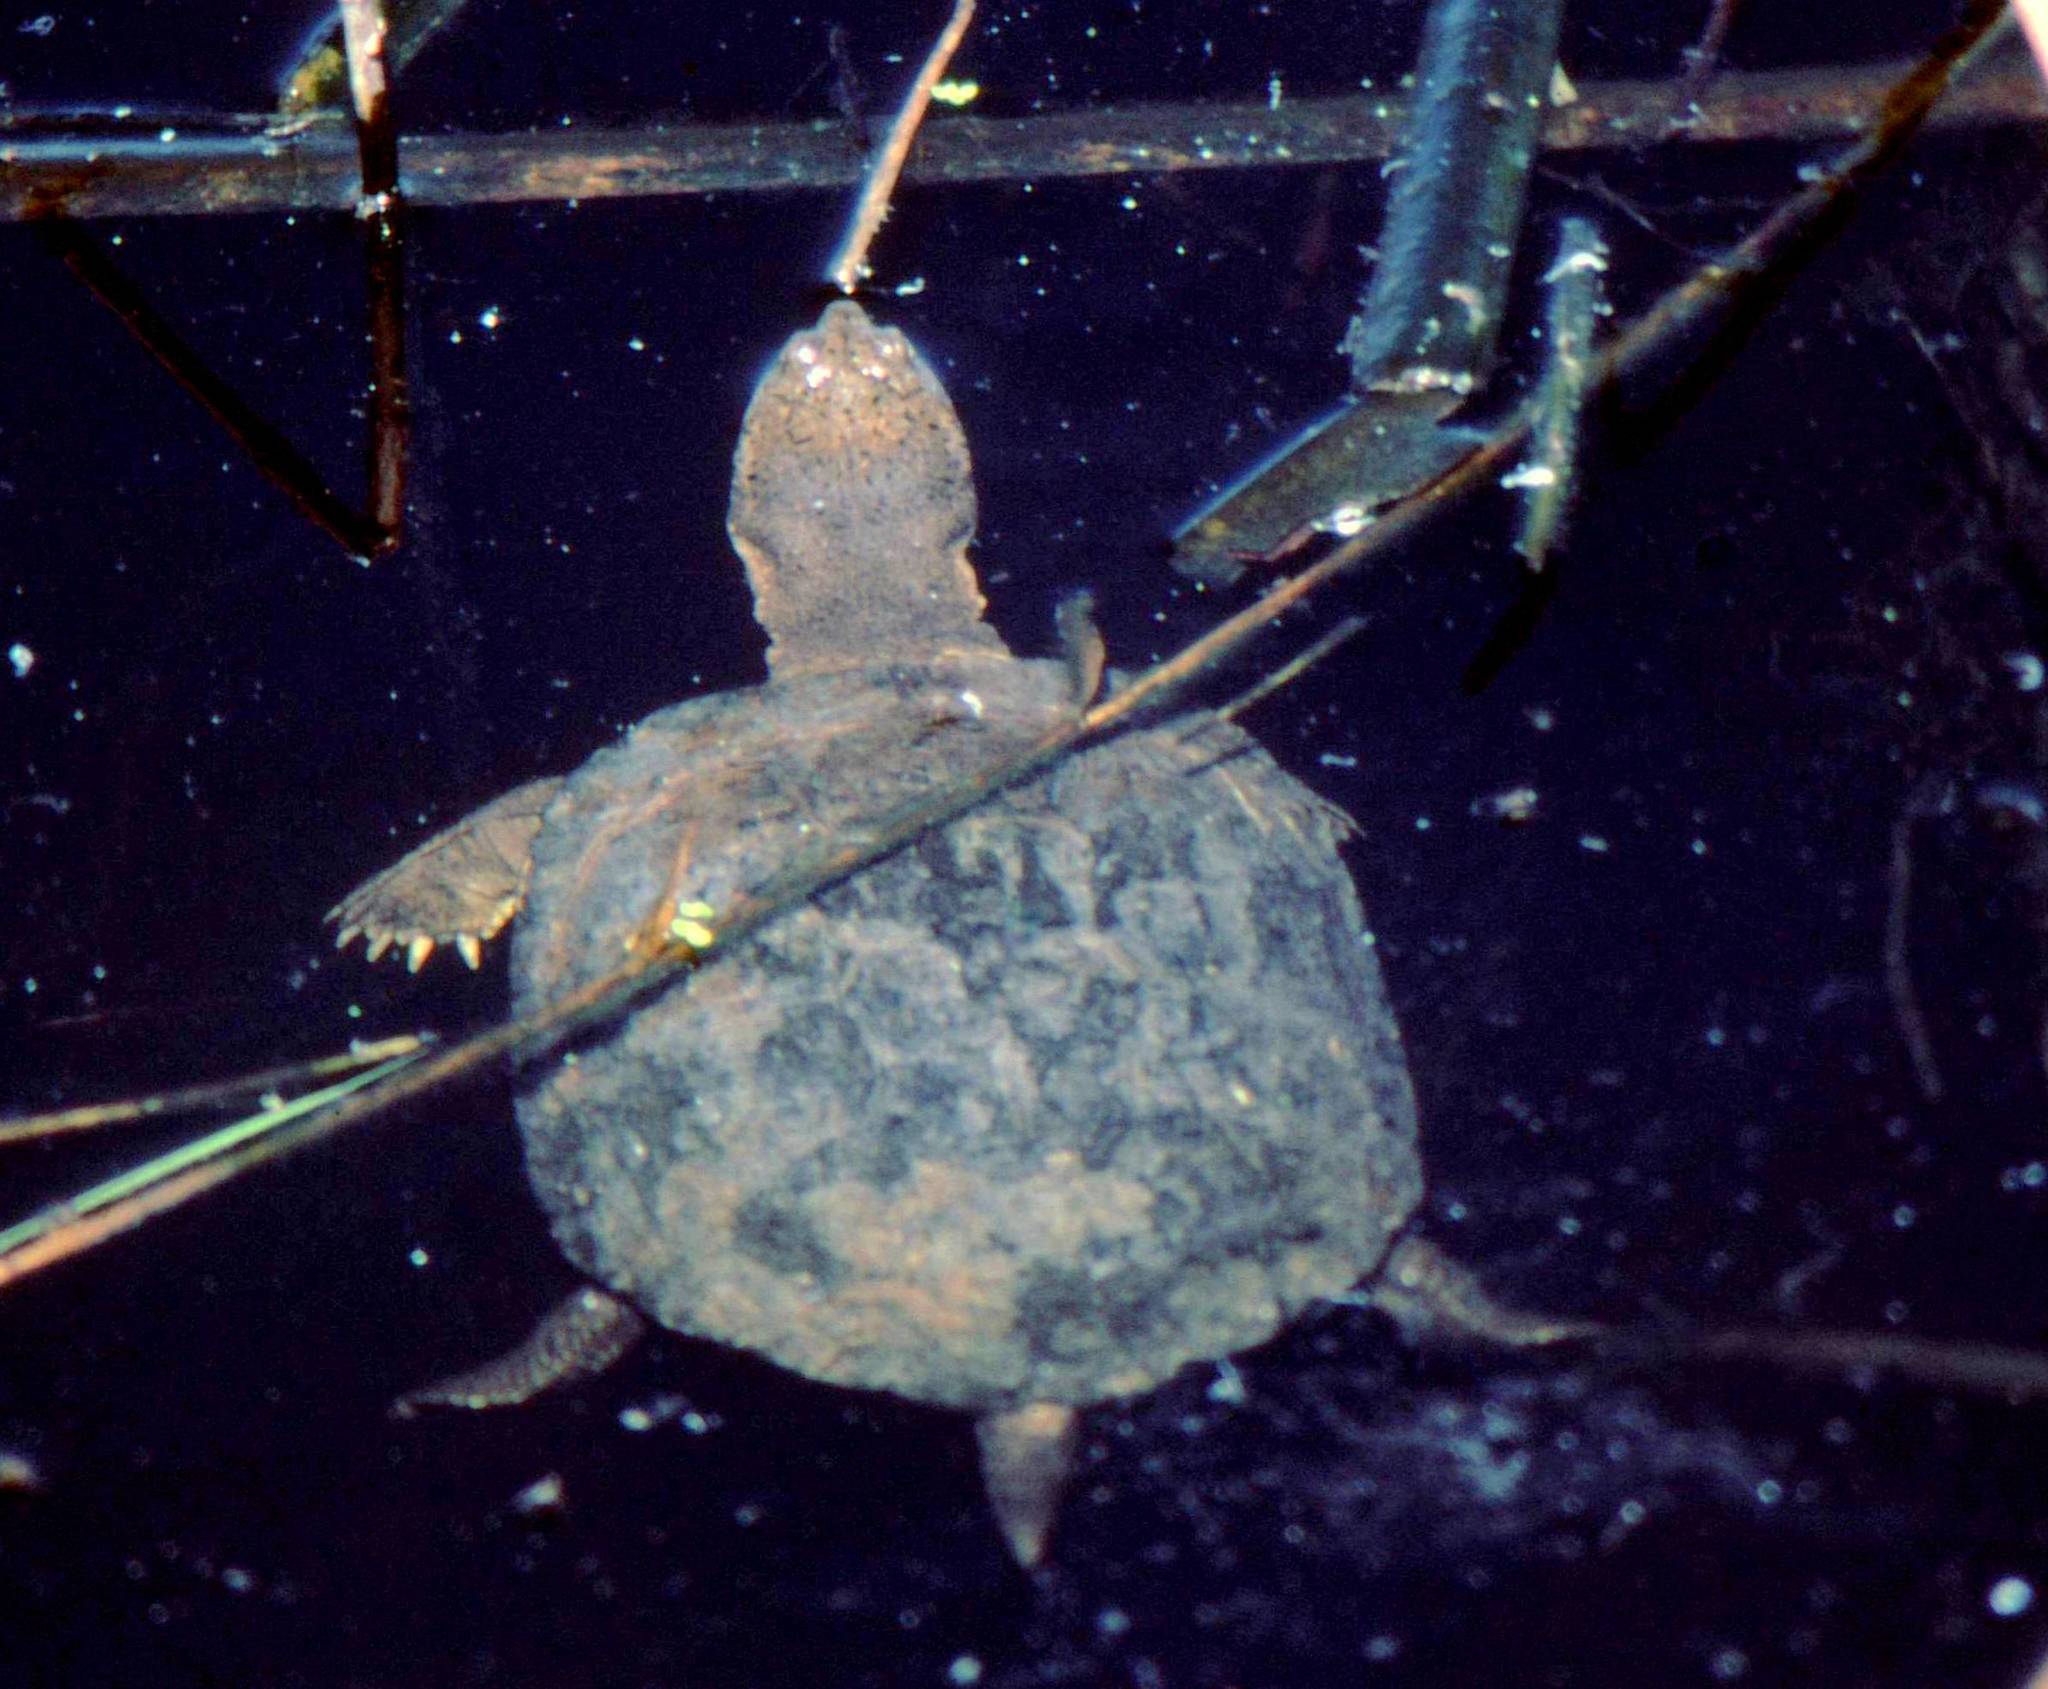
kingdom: Animalia
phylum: Chordata
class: Testudines
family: Pelomedusidae
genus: Pelomedusa
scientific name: Pelomedusa galeata
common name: South african helmeted terrapin
